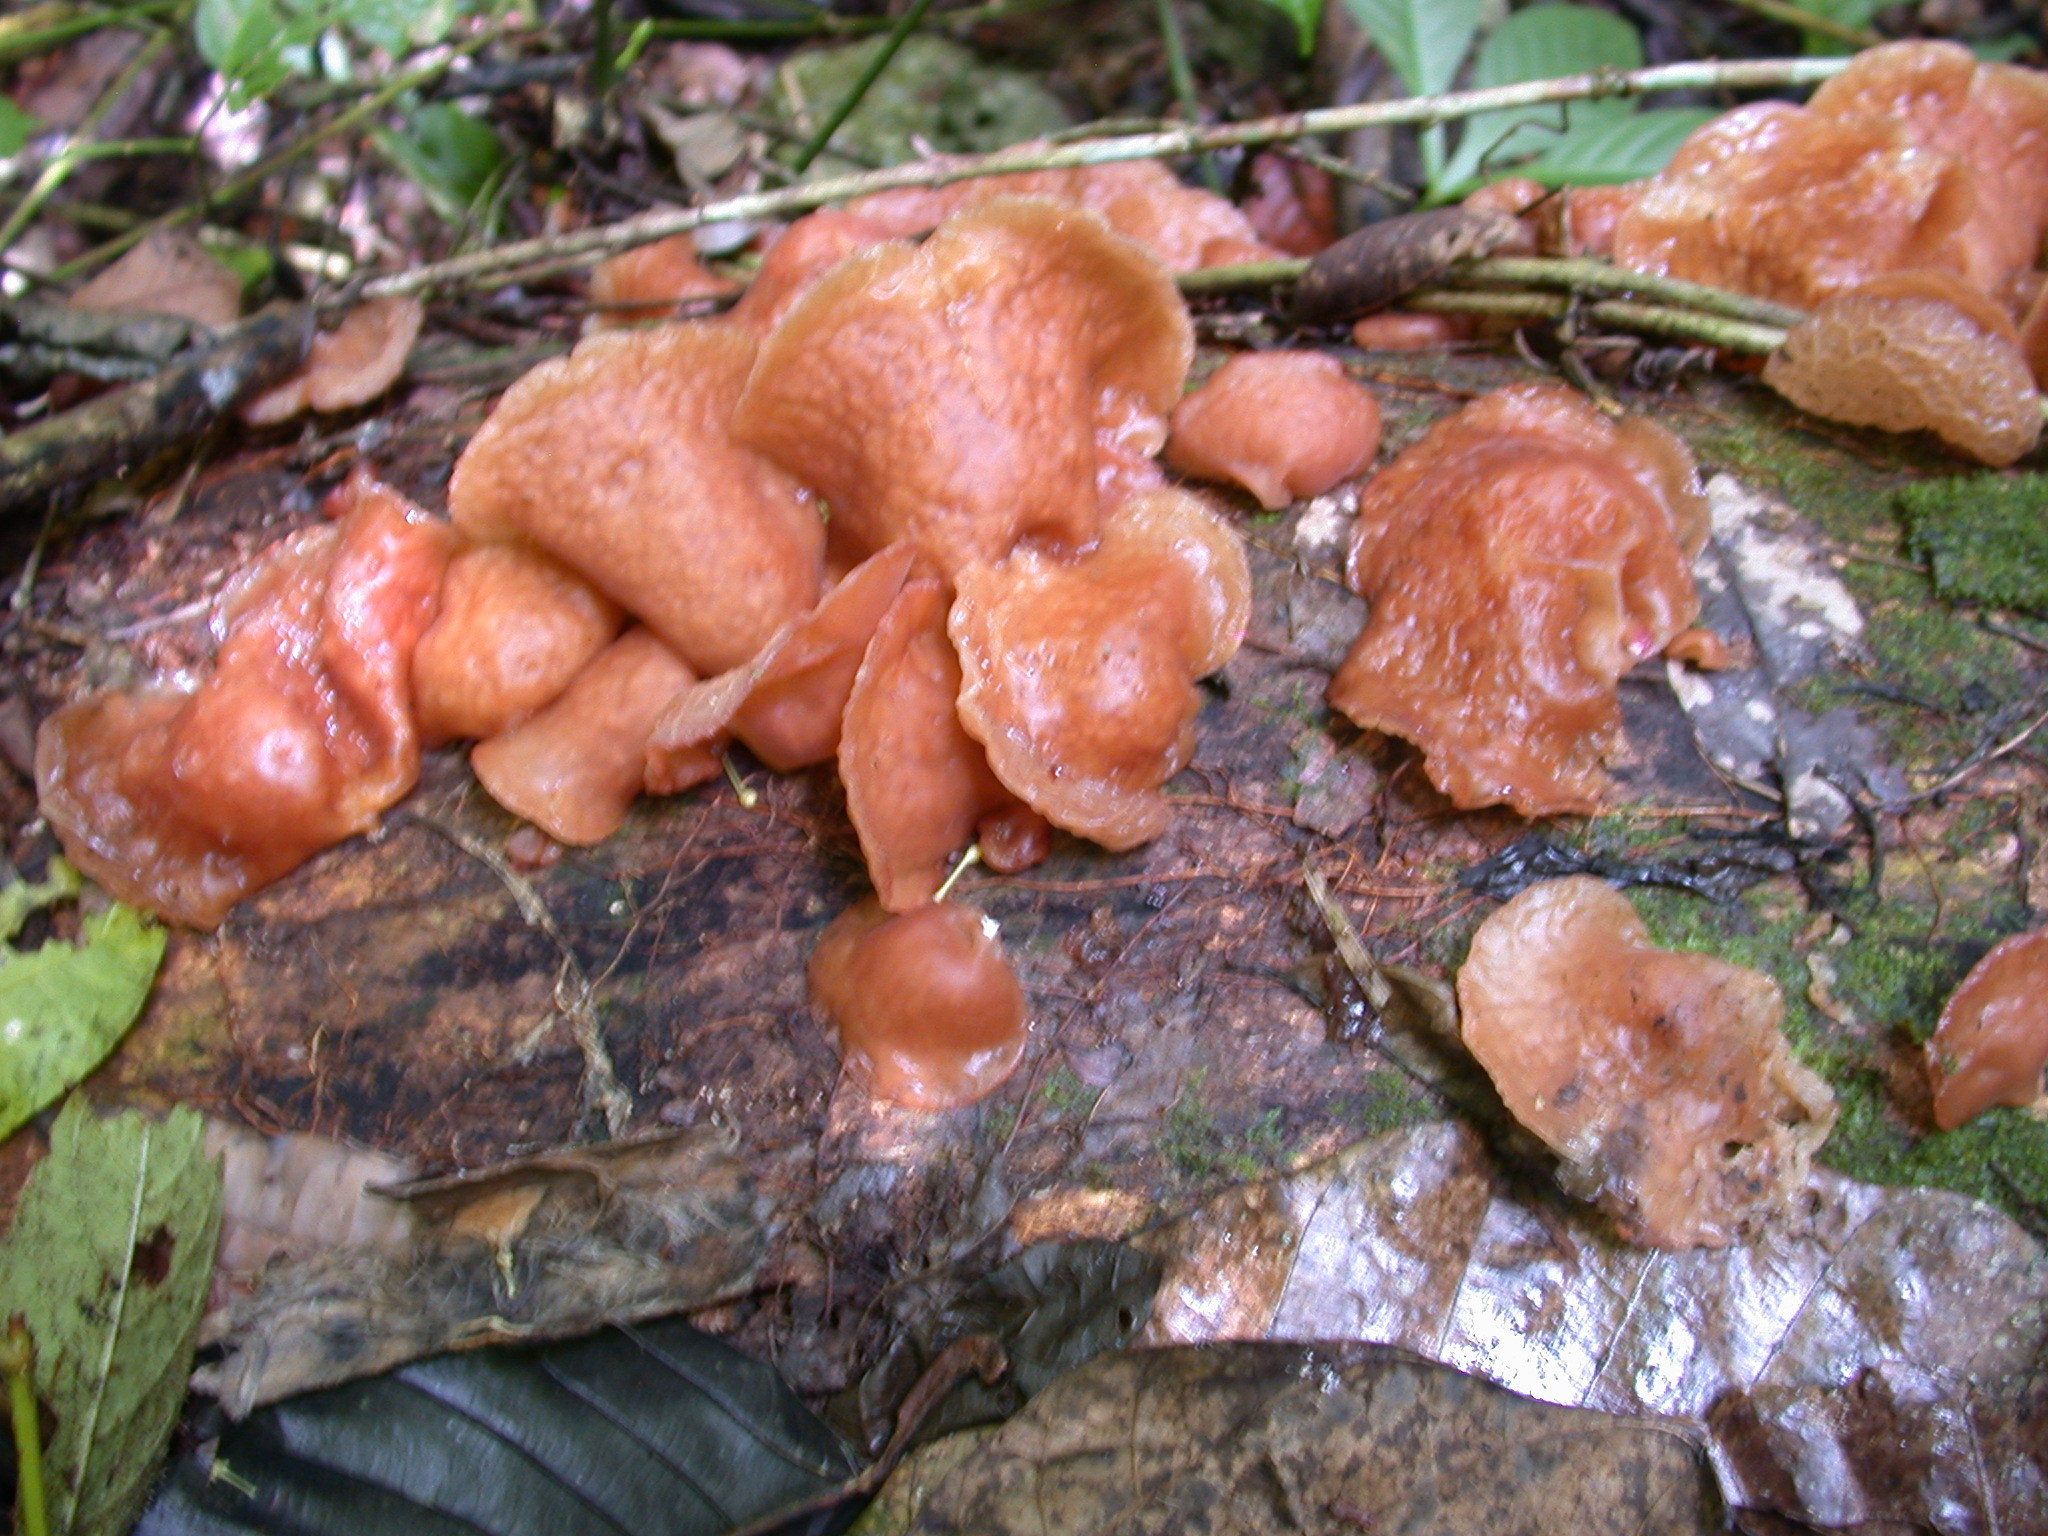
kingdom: Fungi
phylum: Basidiomycota
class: Agaricomycetes
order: Auriculariales
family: Auriculariaceae
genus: Auricularia
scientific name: Auricularia auricula-judae
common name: Jelly ear
